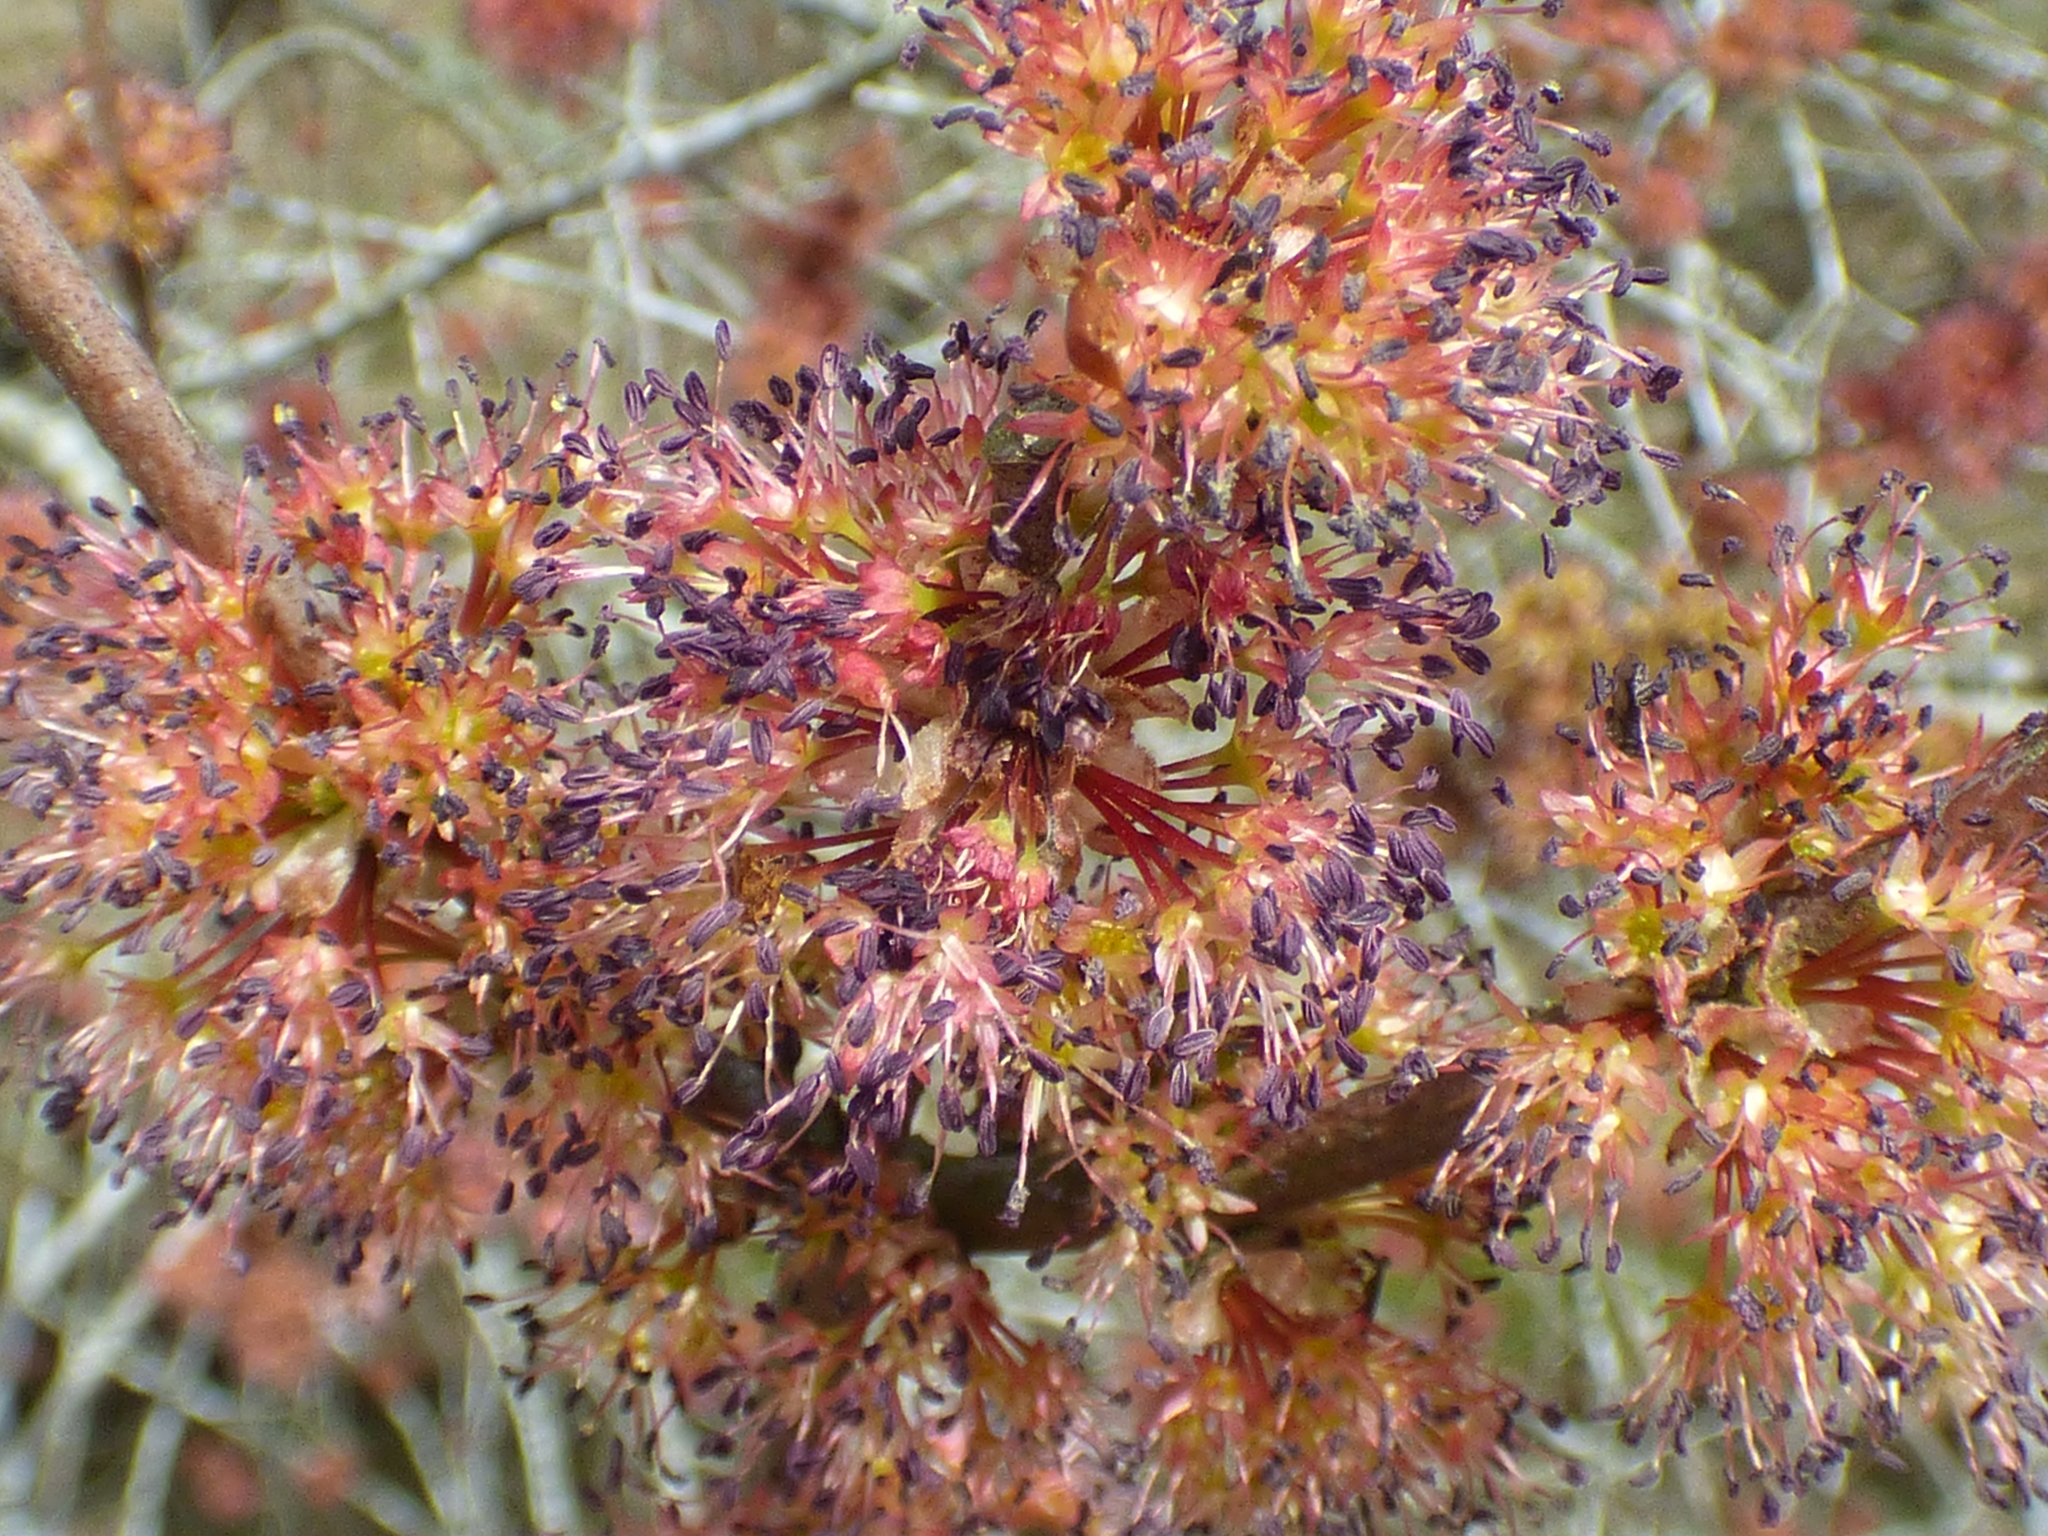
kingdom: Plantae
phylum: Tracheophyta
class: Magnoliopsida
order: Sapindales
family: Sapindaceae
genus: Acer
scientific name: Acer rubrum
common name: Red maple
